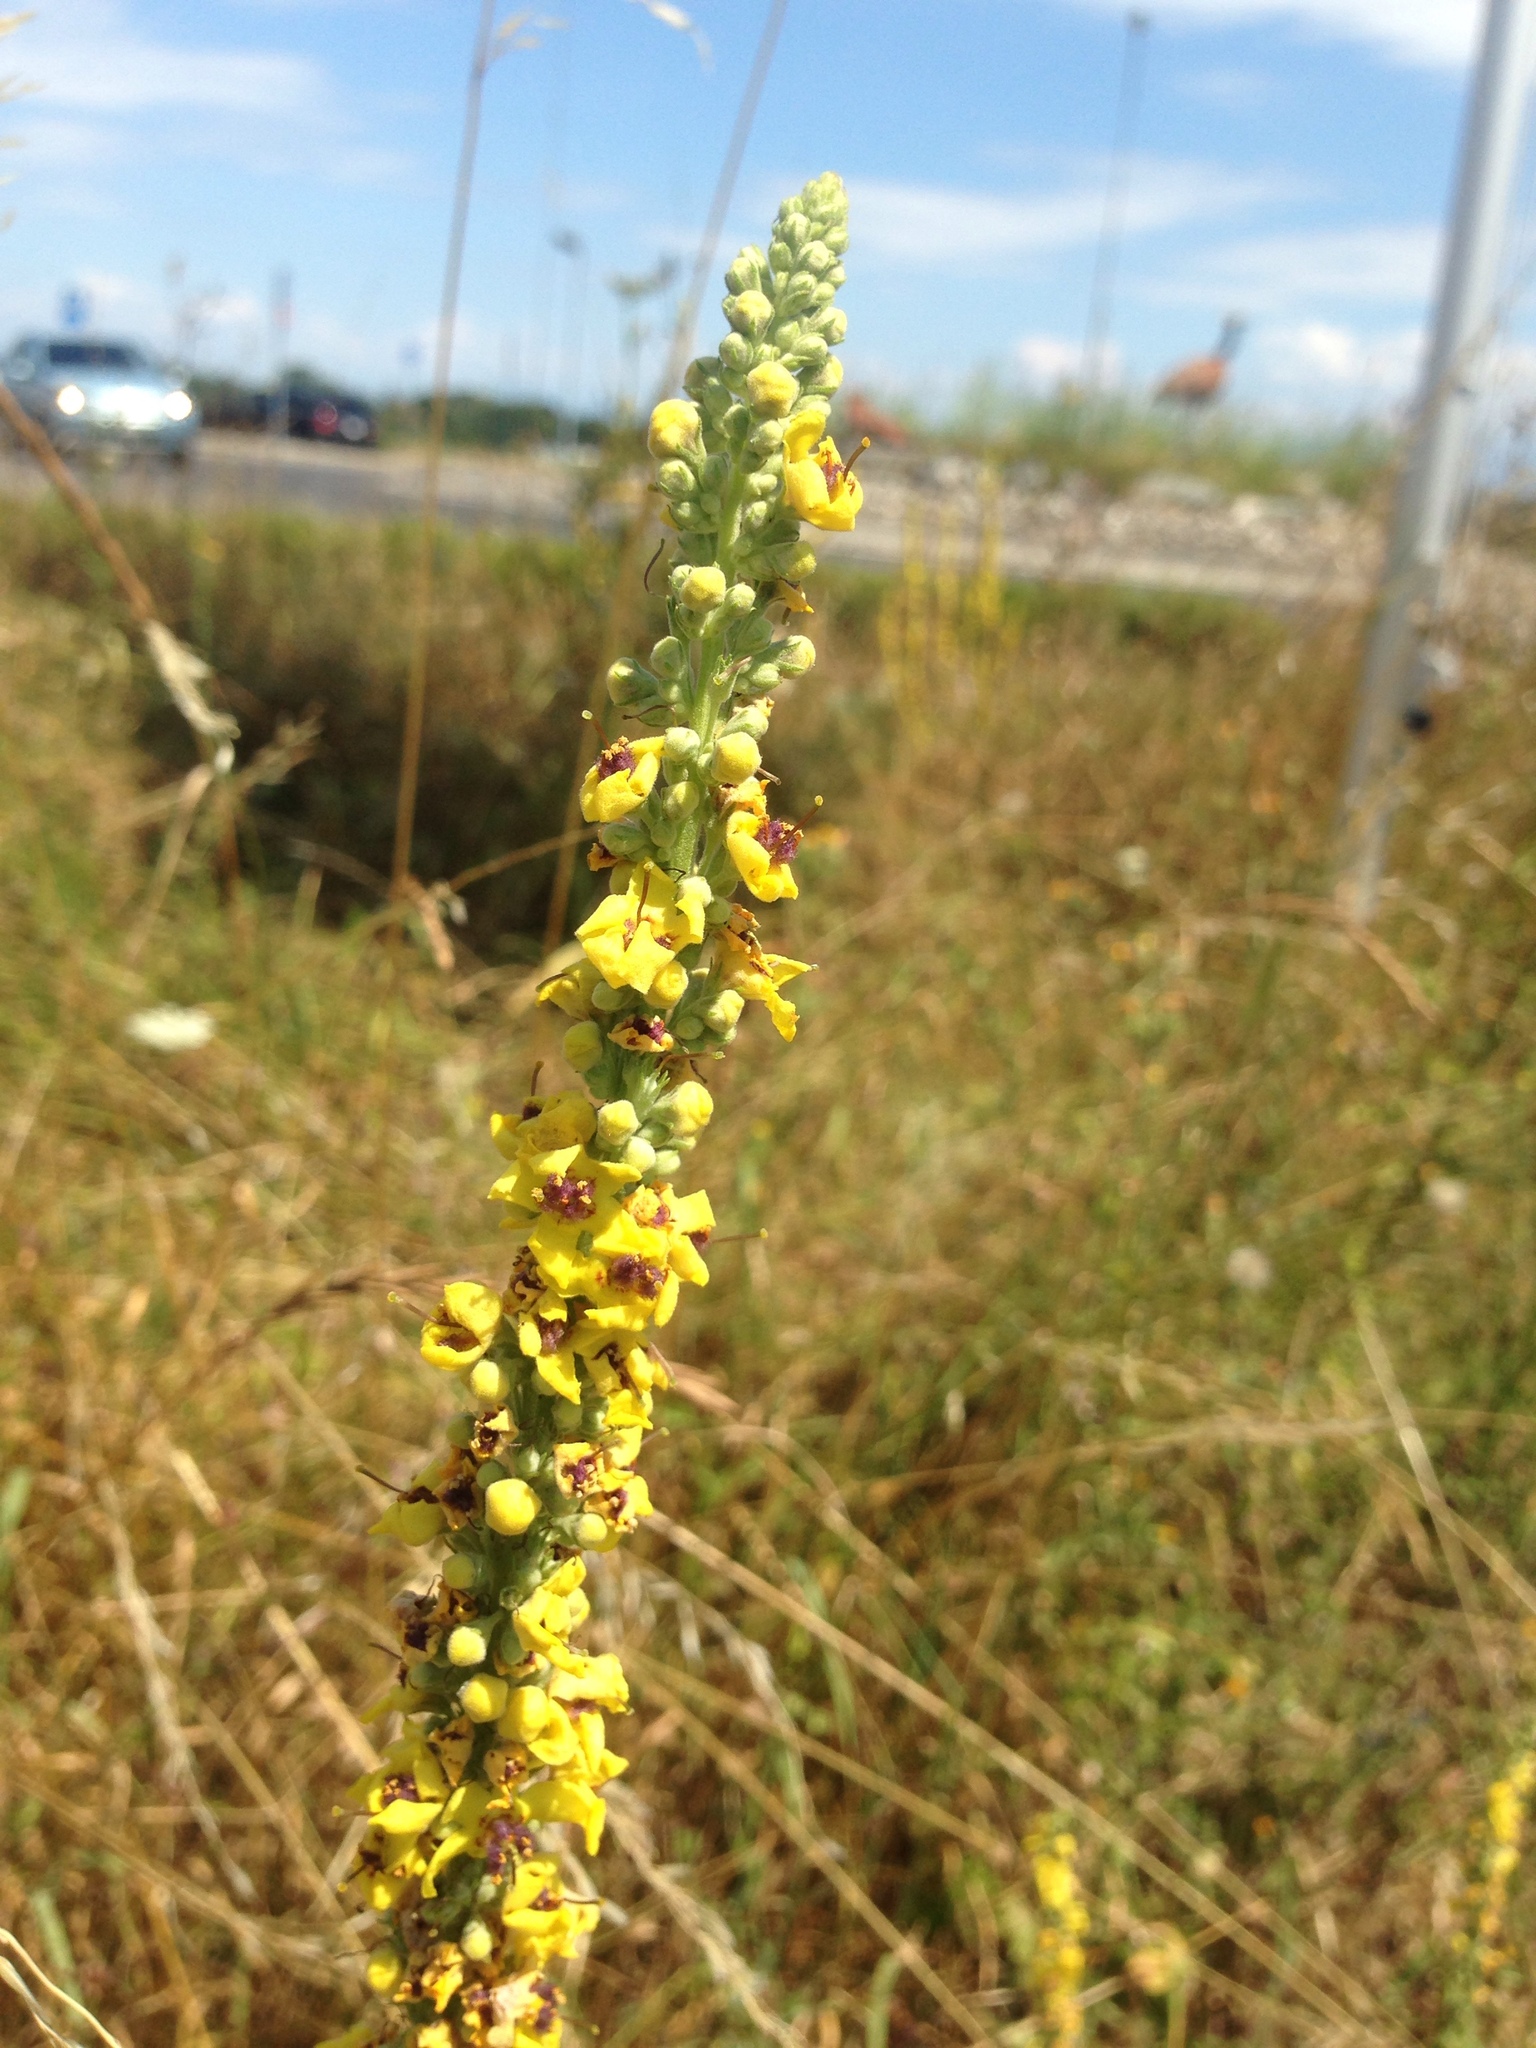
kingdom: Plantae
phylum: Tracheophyta
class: Magnoliopsida
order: Lamiales
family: Scrophulariaceae
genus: Verbascum
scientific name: Verbascum nigrum
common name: Dark mullein
